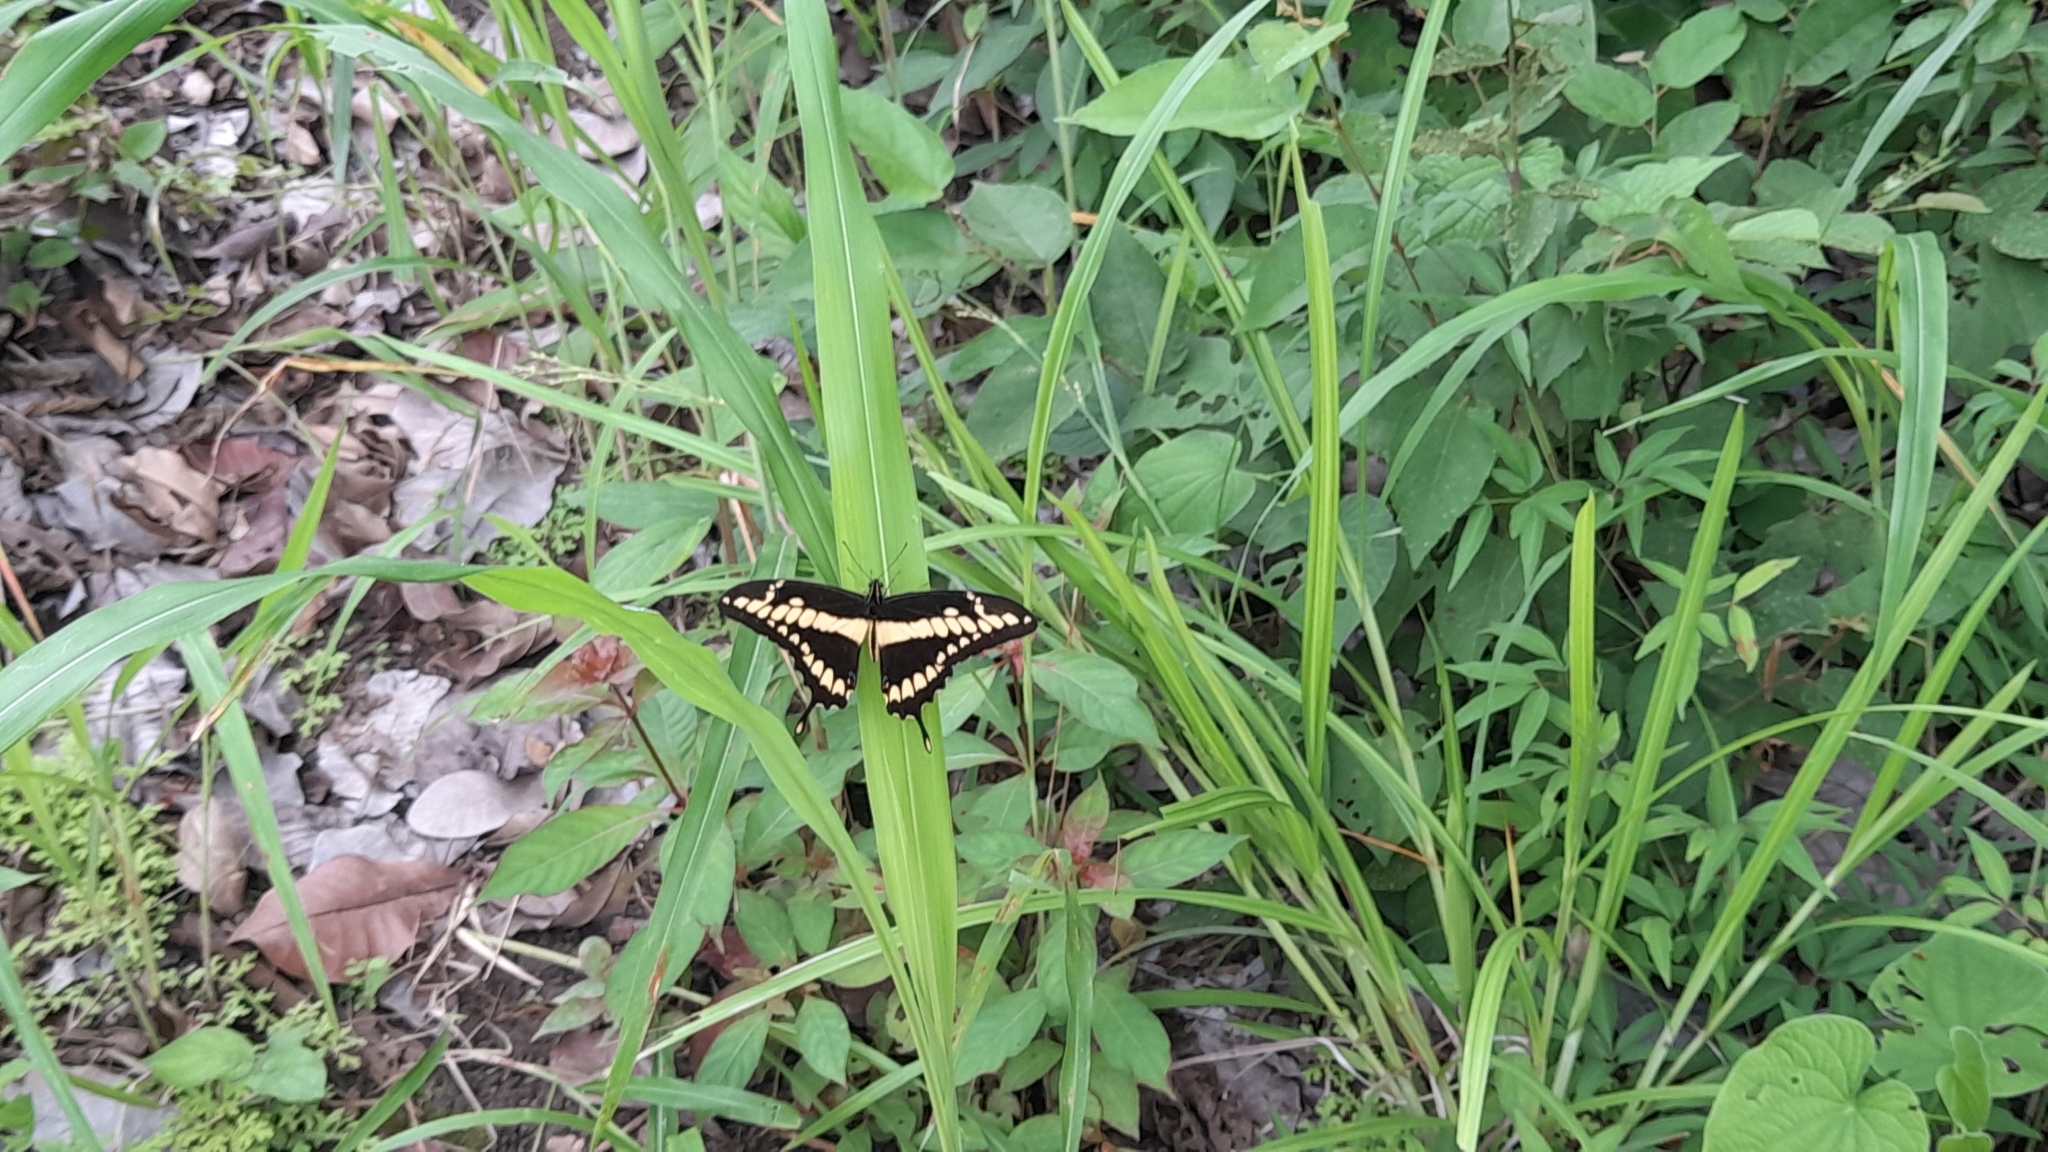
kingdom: Animalia
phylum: Arthropoda
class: Insecta
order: Lepidoptera
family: Papilionidae
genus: Papilio
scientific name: Papilio thoas
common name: King swallowtail
